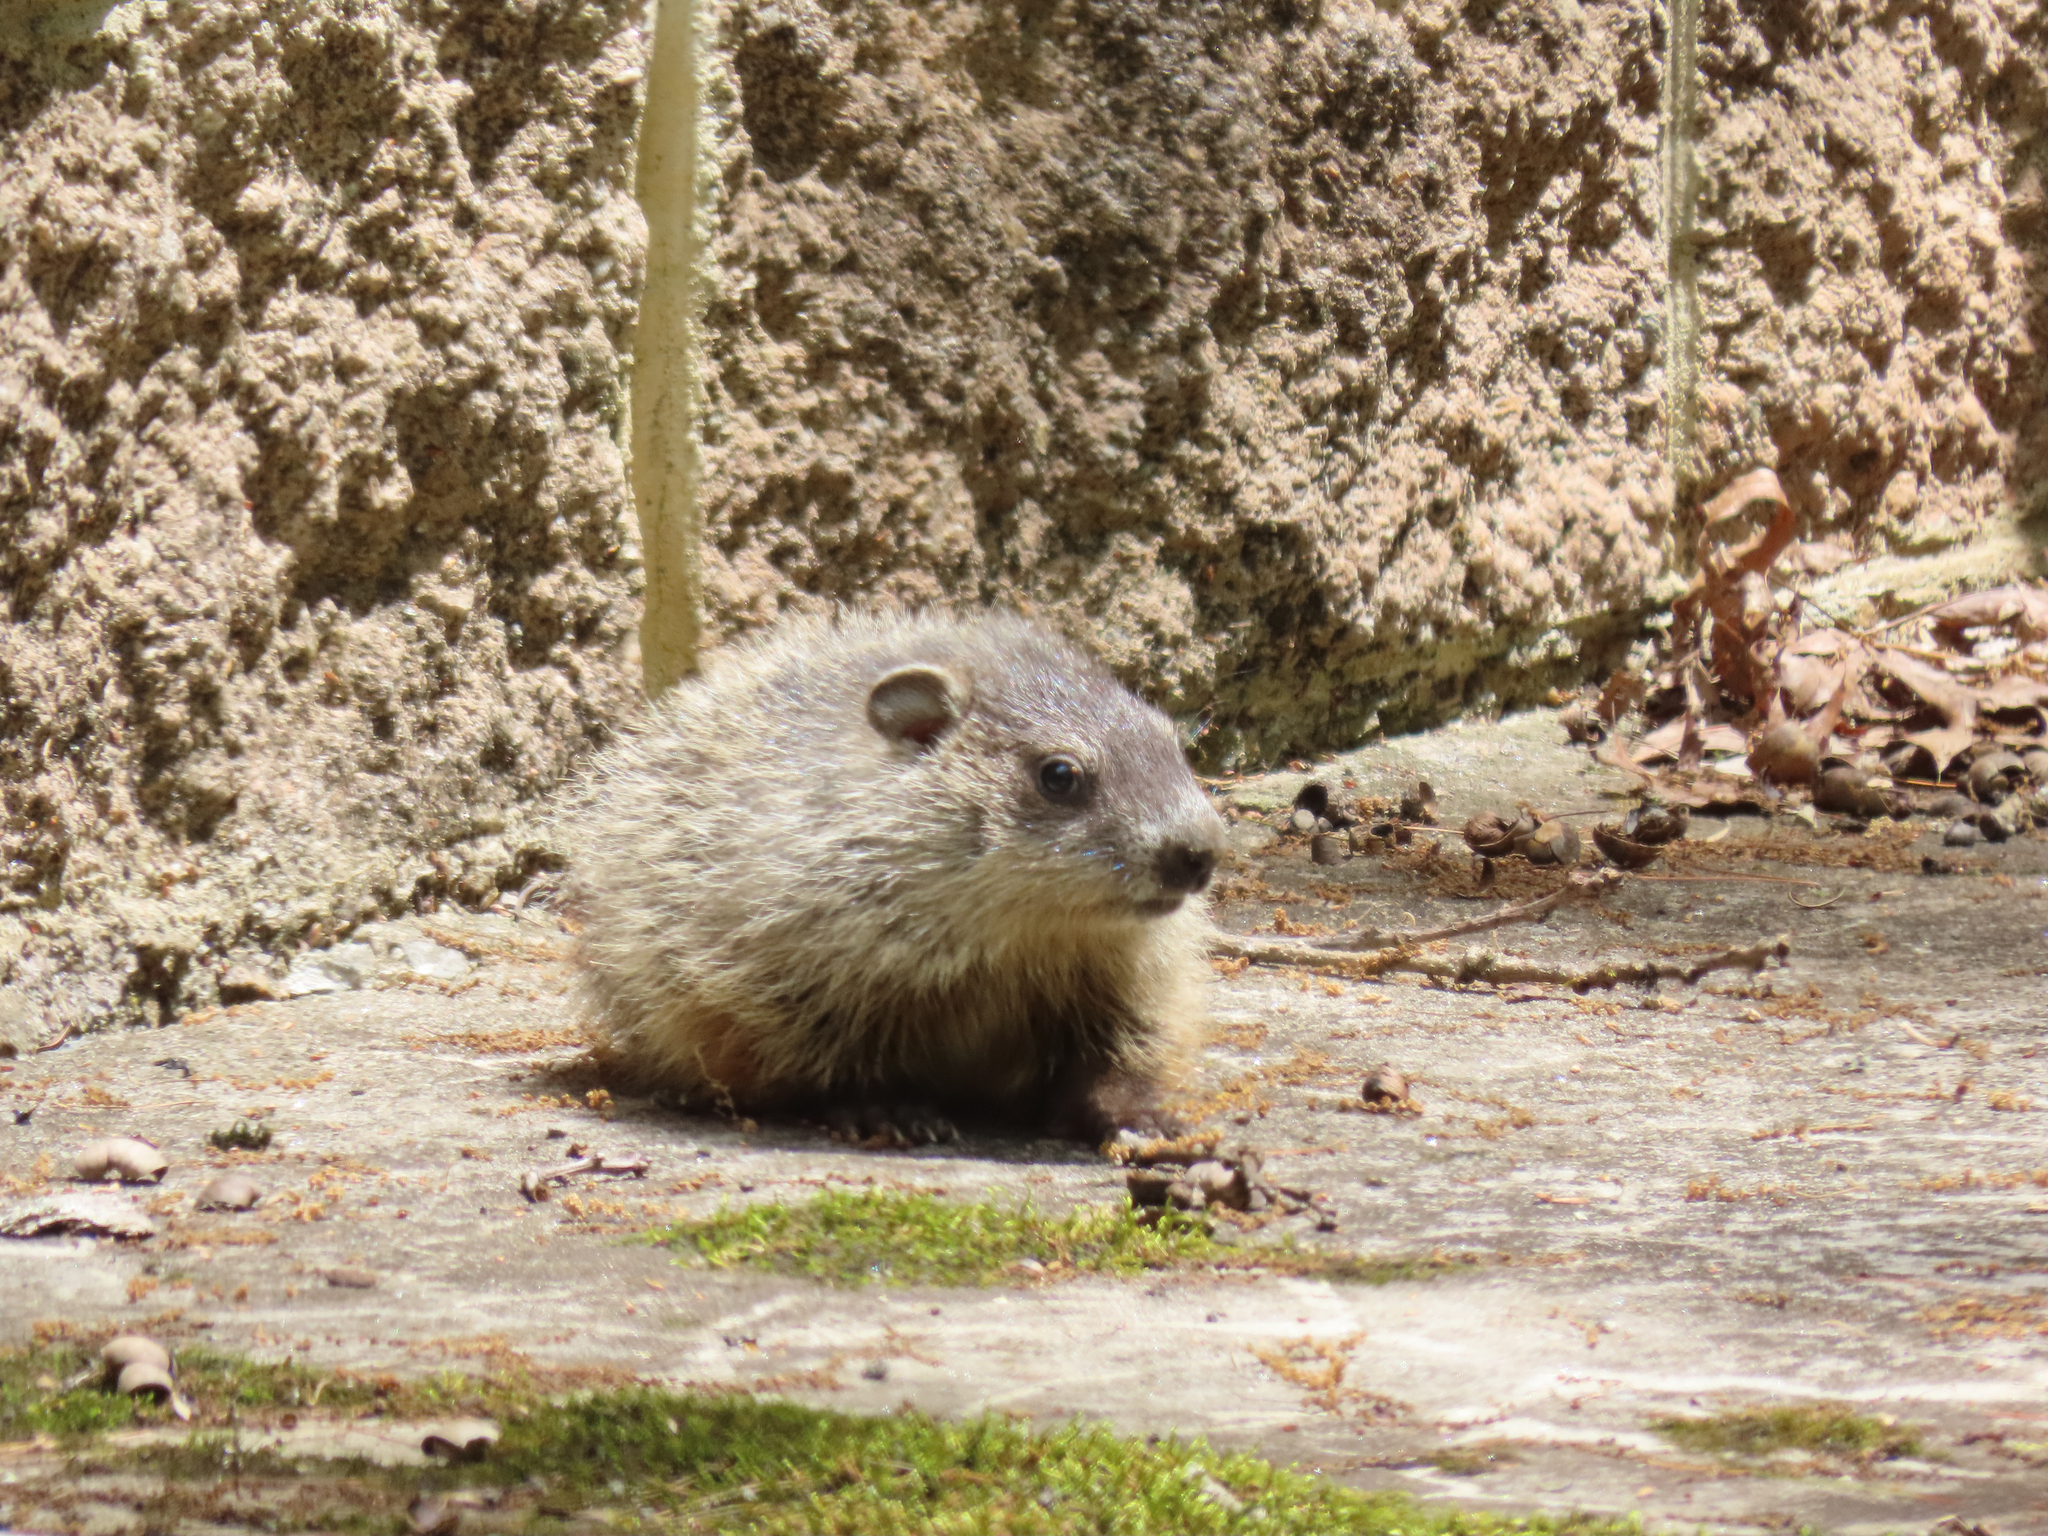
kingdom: Animalia
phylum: Chordata
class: Mammalia
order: Rodentia
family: Sciuridae
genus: Marmota
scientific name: Marmota monax
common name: Groundhog
